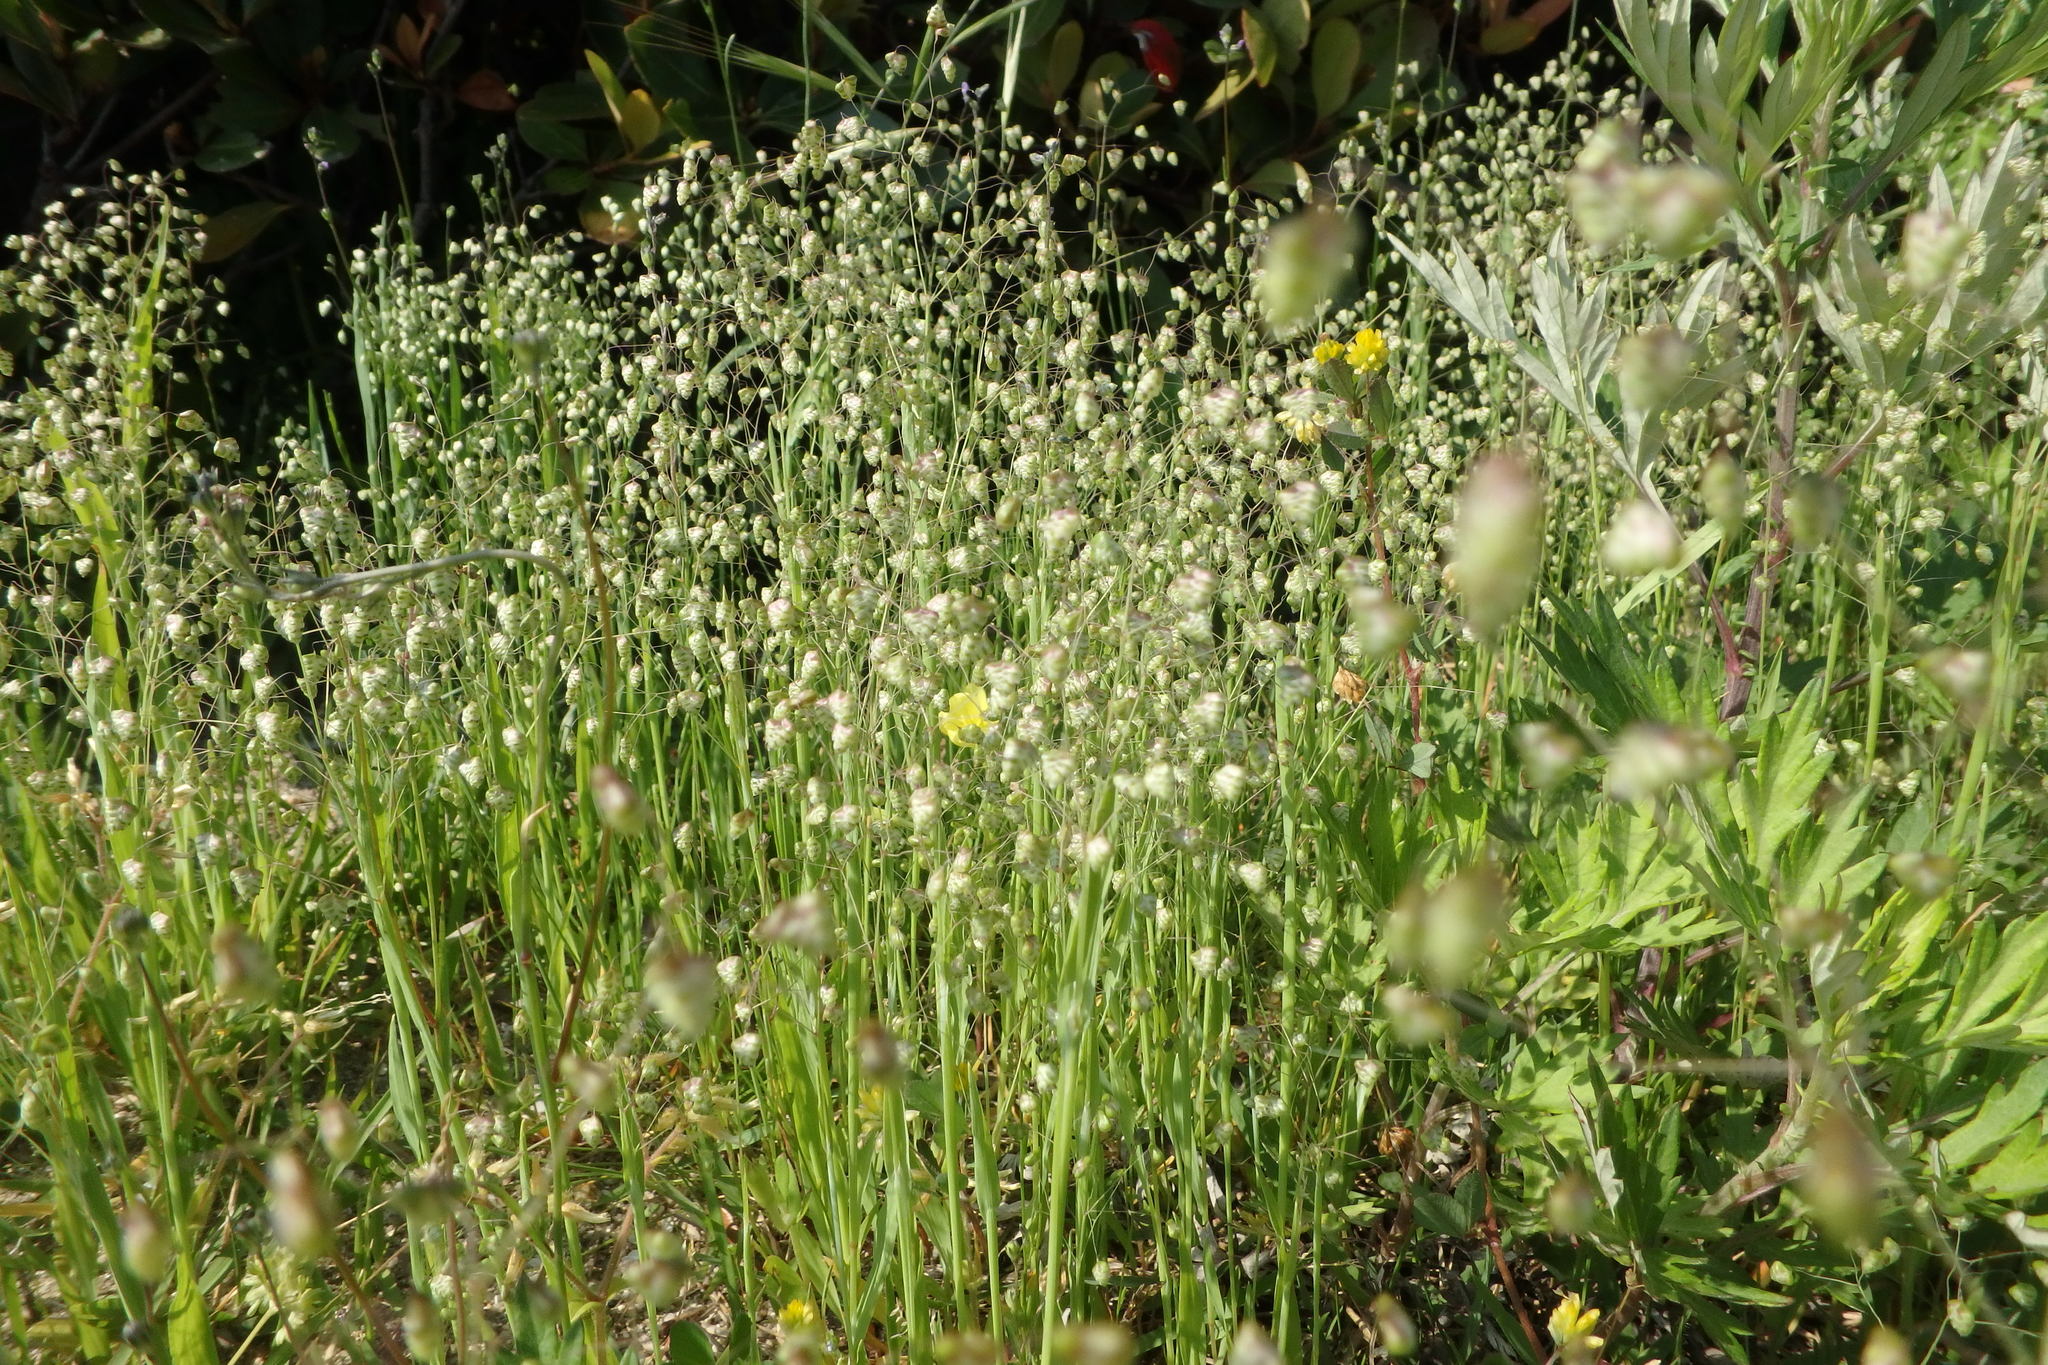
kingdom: Plantae
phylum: Tracheophyta
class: Liliopsida
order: Poales
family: Poaceae
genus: Briza
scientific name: Briza minor
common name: Lesser quaking-grass
